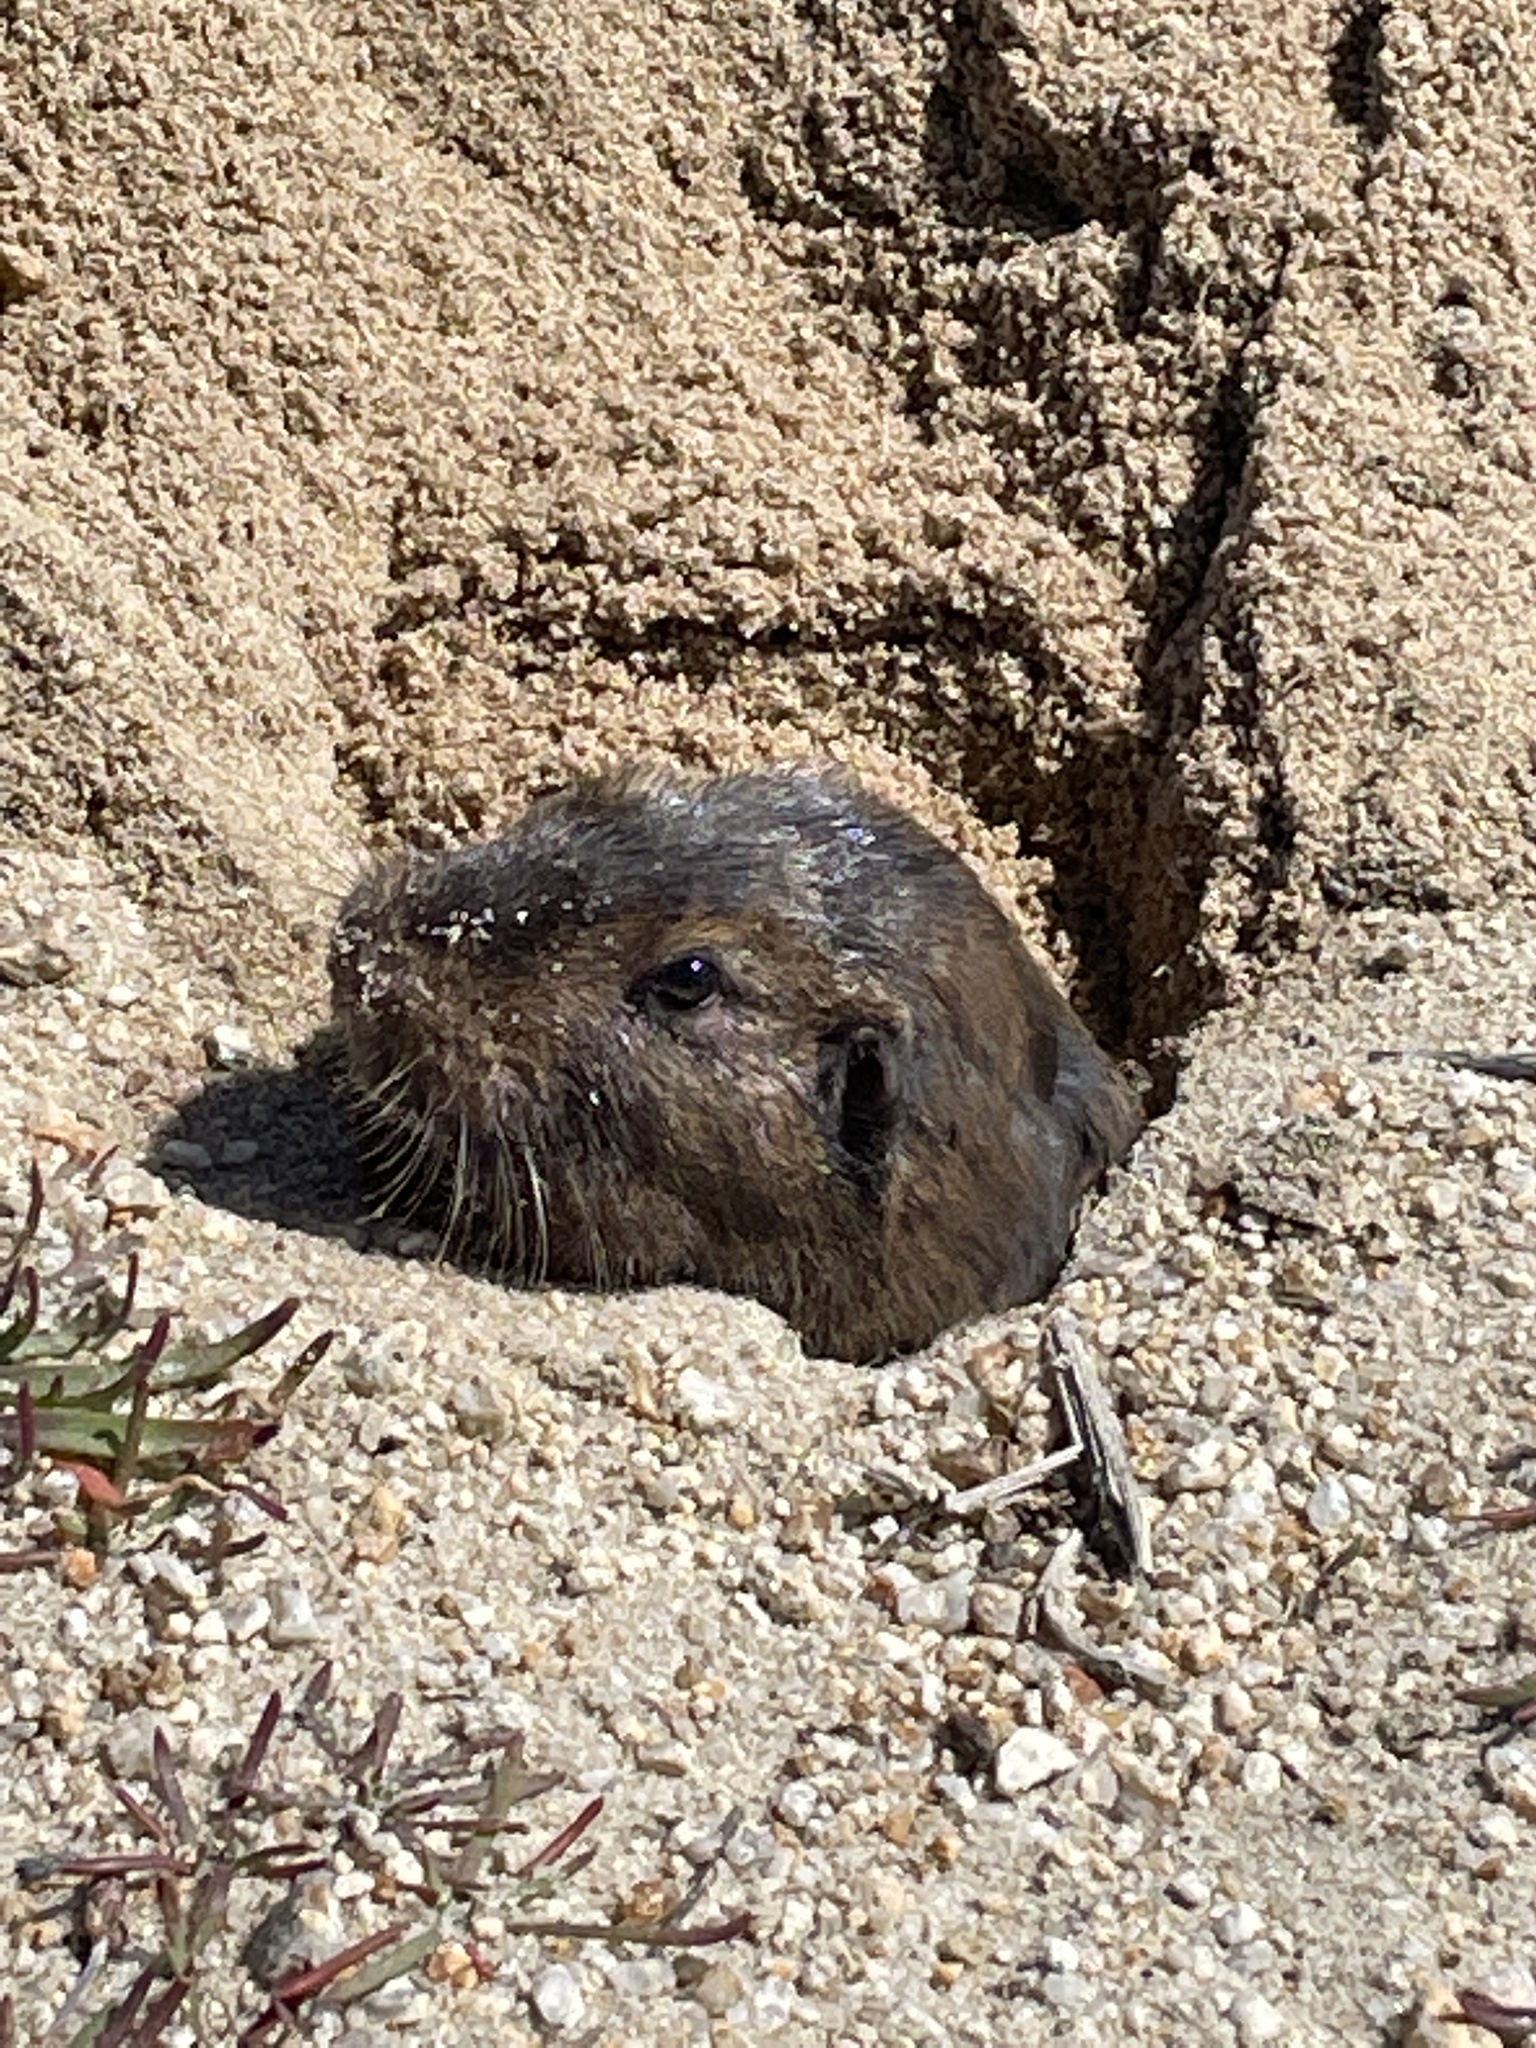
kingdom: Animalia
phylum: Chordata
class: Mammalia
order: Rodentia
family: Geomyidae
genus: Thomomys
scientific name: Thomomys bottae
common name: Botta's pocket gopher
